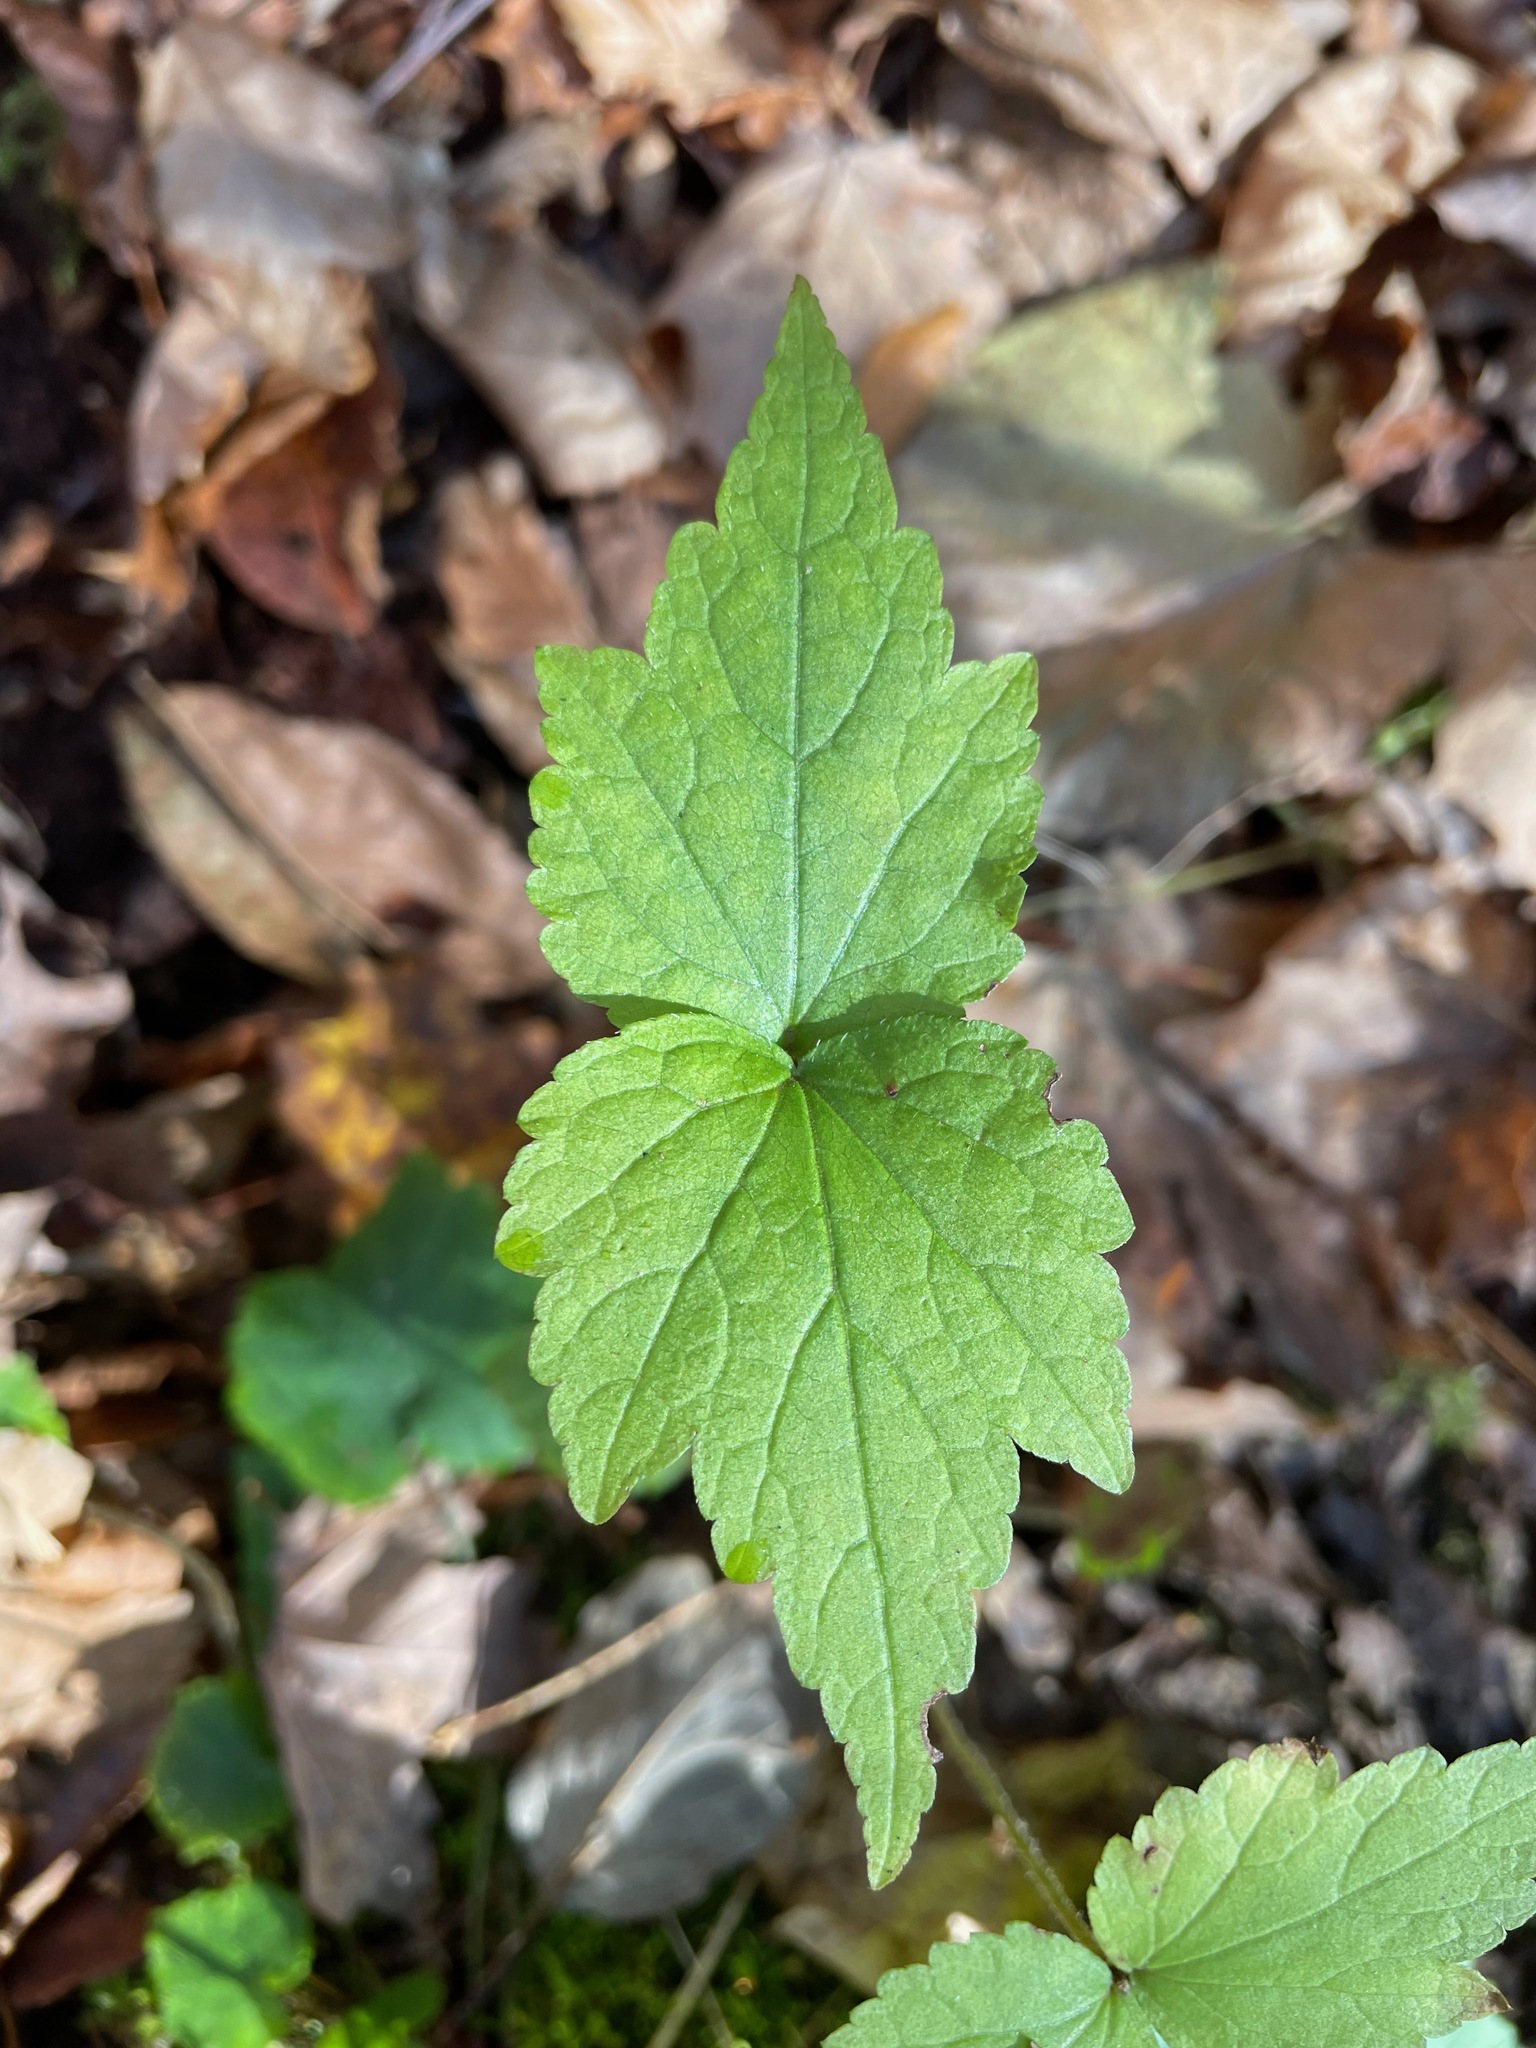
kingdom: Plantae
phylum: Tracheophyta
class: Magnoliopsida
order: Saxifragales
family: Saxifragaceae
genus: Mitella
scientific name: Mitella diphylla
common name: Coolwort
